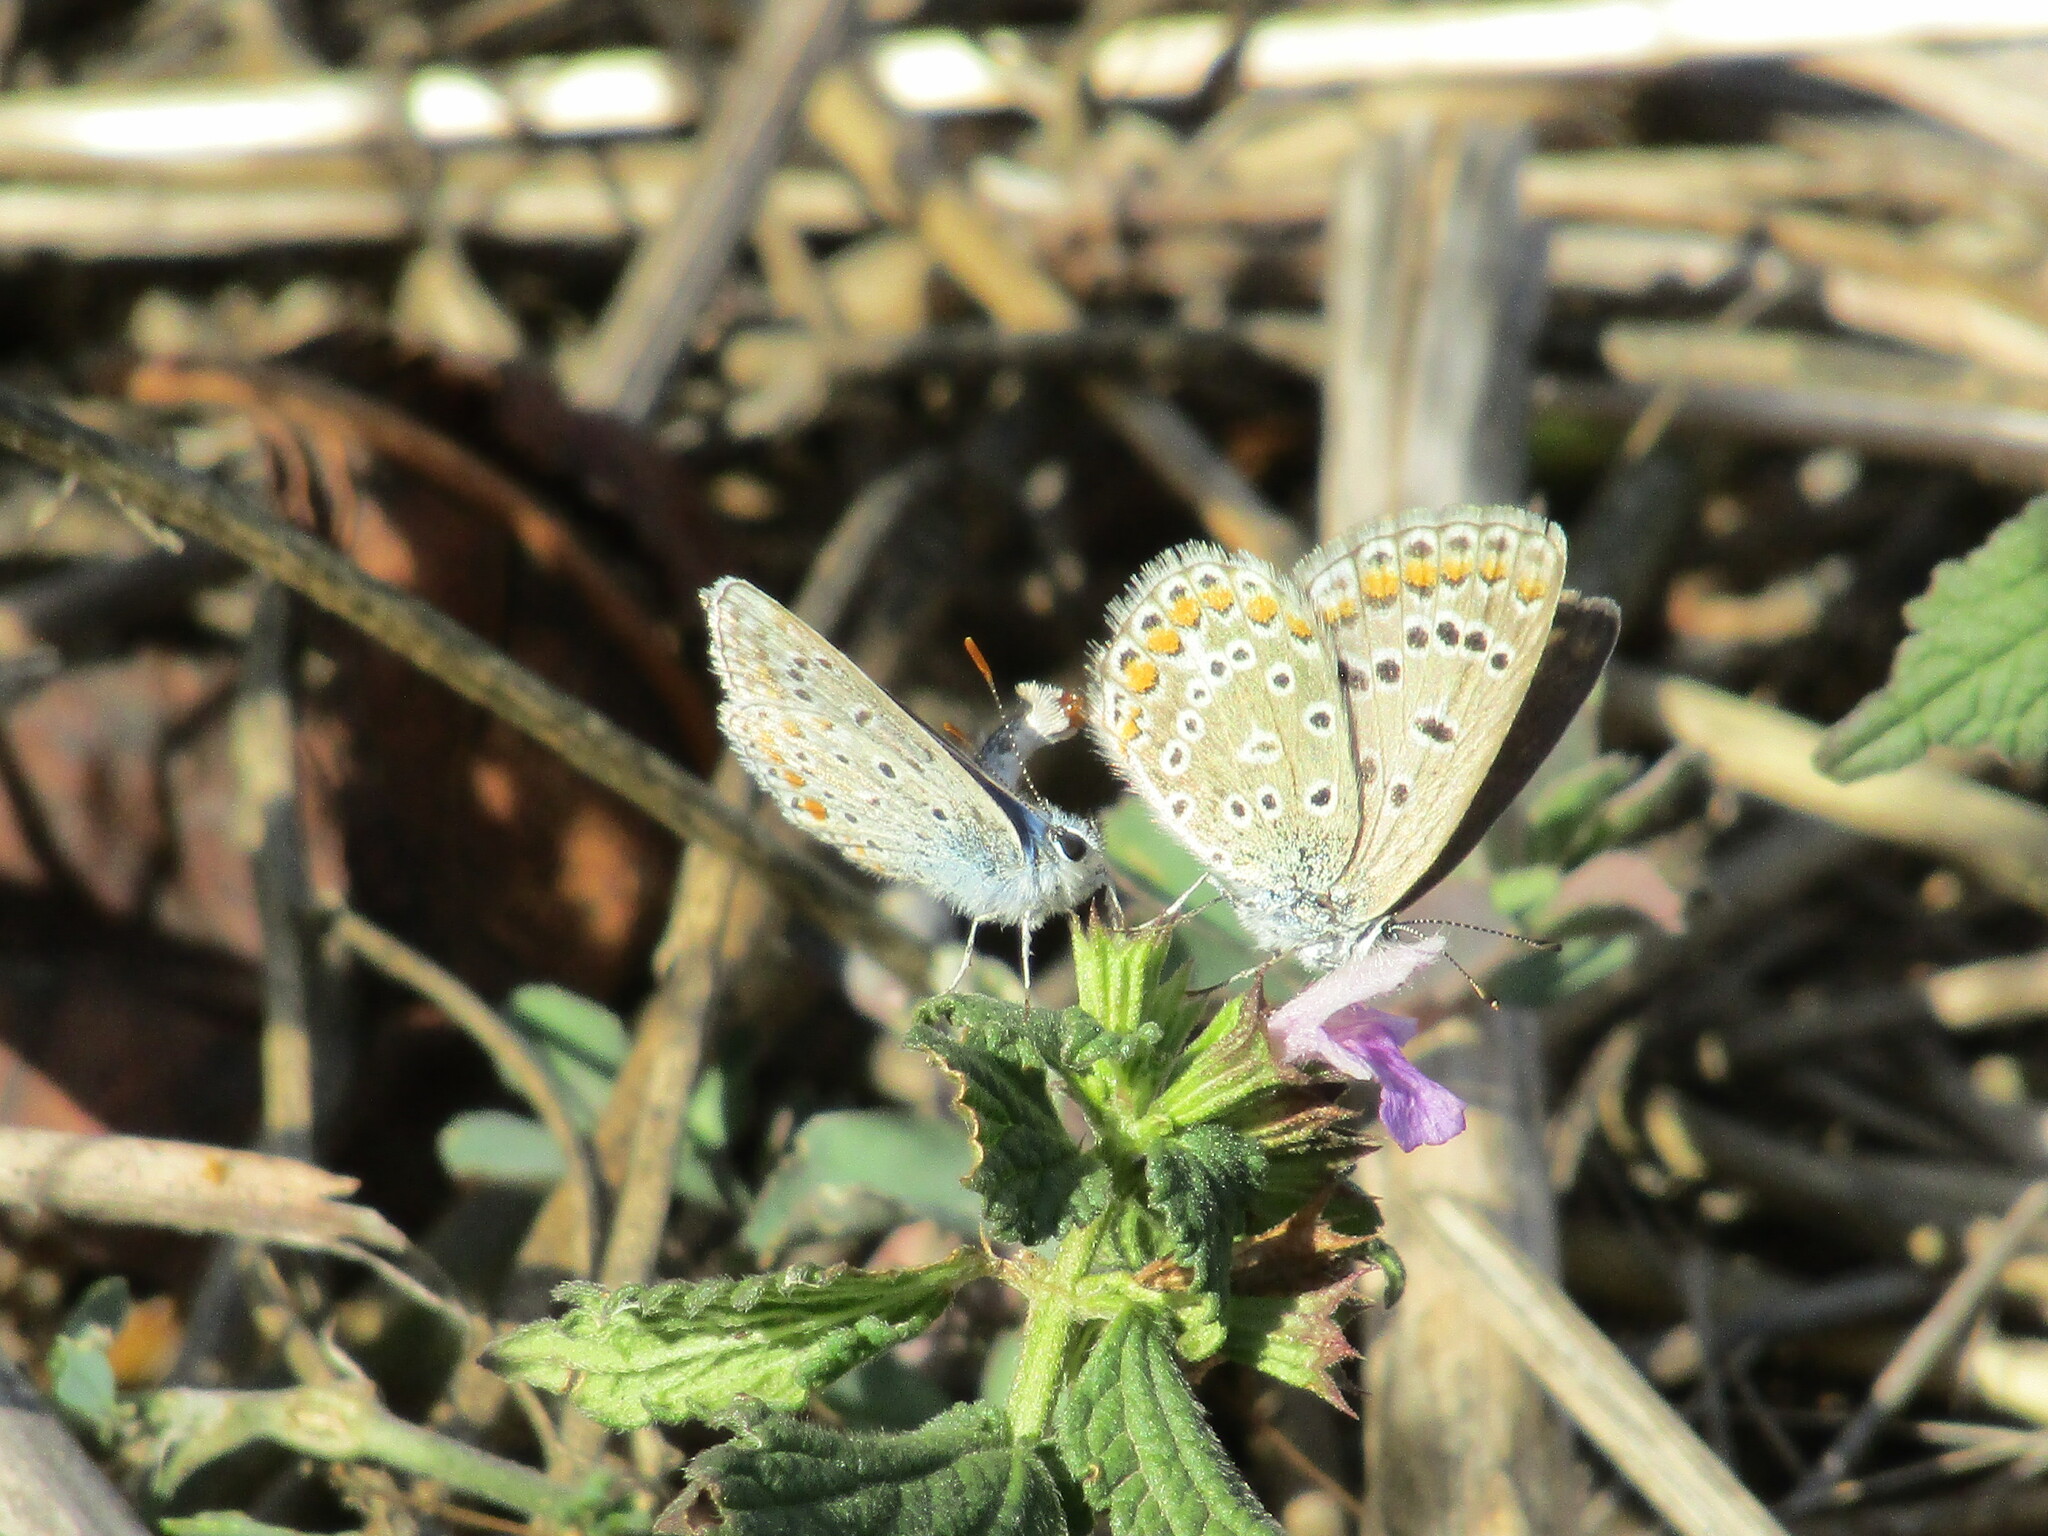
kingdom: Animalia
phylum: Arthropoda
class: Insecta
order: Lepidoptera
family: Lycaenidae
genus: Polyommatus
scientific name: Polyommatus icarus
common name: Common blue
